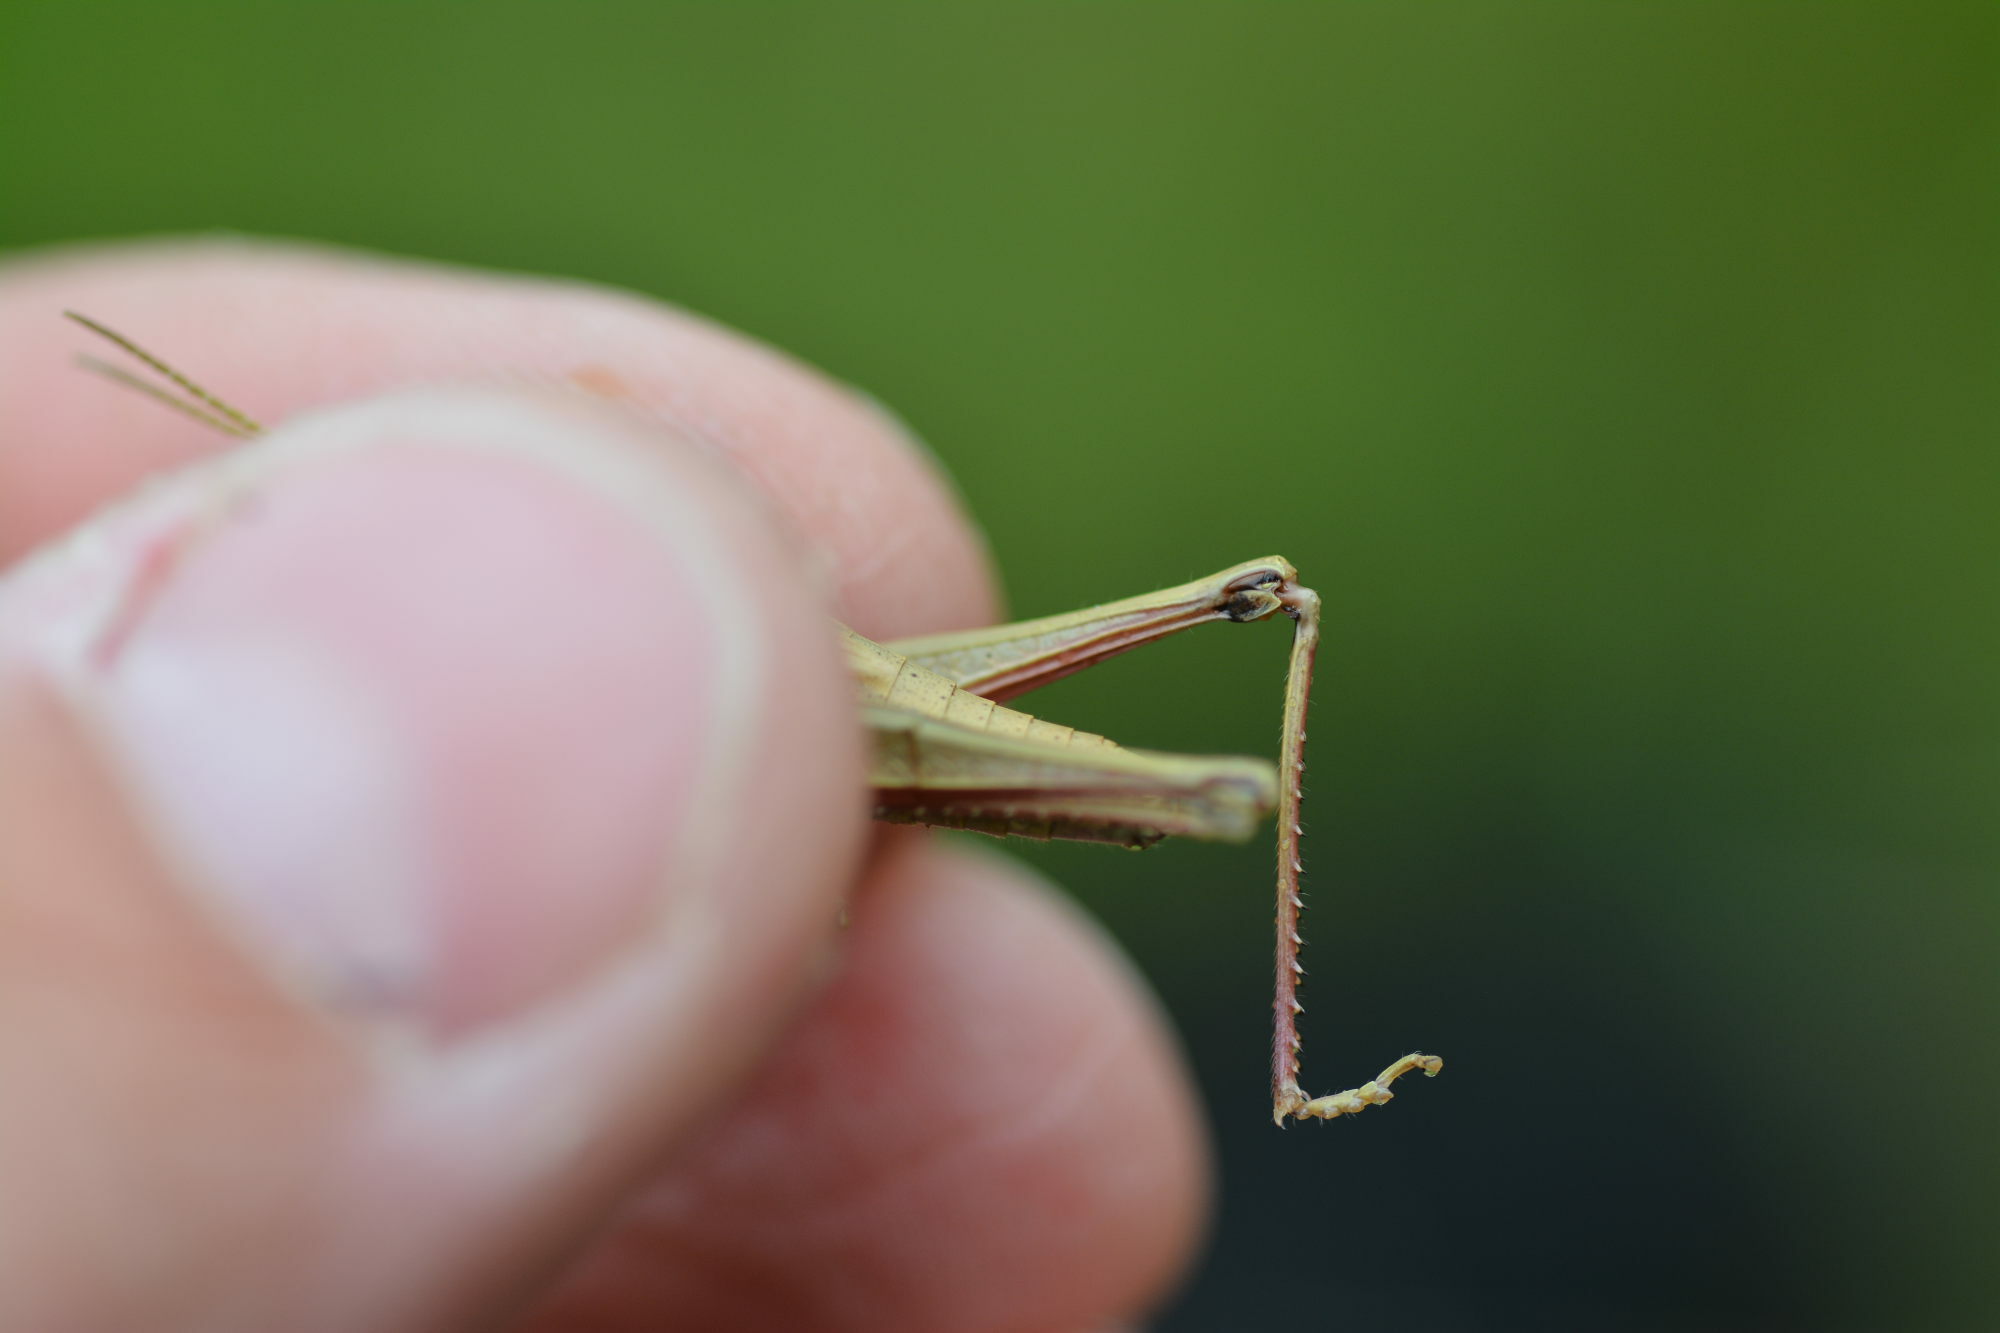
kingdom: Animalia
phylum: Arthropoda
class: Insecta
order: Orthoptera
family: Acrididae
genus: Chrysochraon
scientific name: Chrysochraon dispar
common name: Large gold grasshopper
